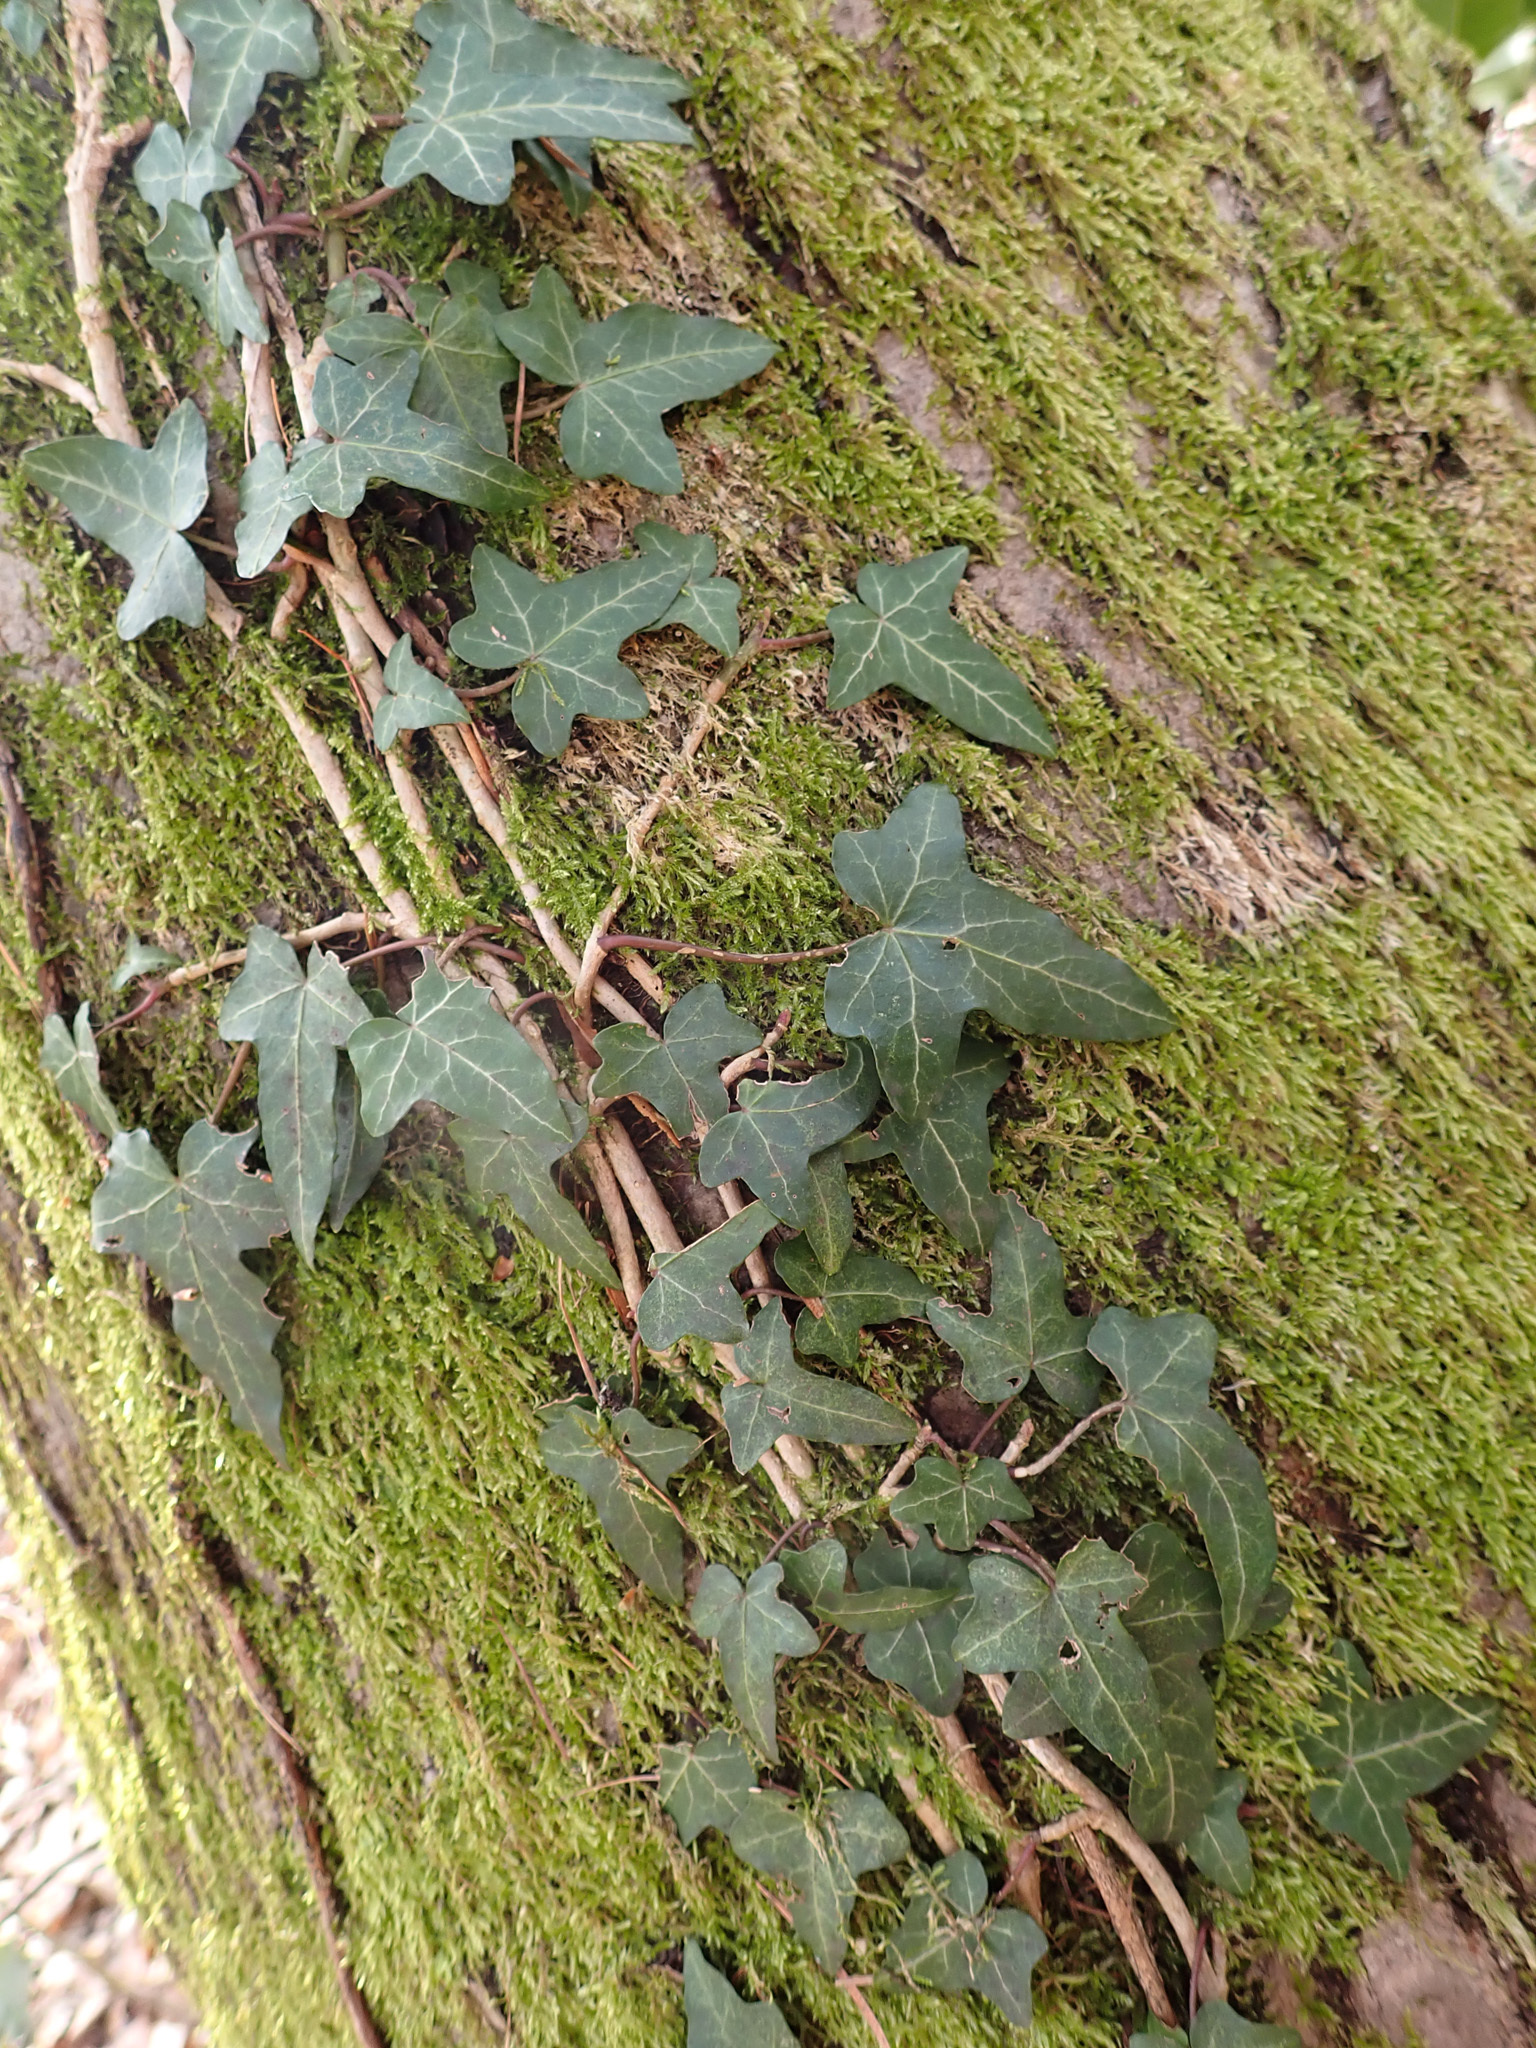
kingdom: Plantae
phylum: Tracheophyta
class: Magnoliopsida
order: Apiales
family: Araliaceae
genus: Hedera
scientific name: Hedera helix
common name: Ivy
